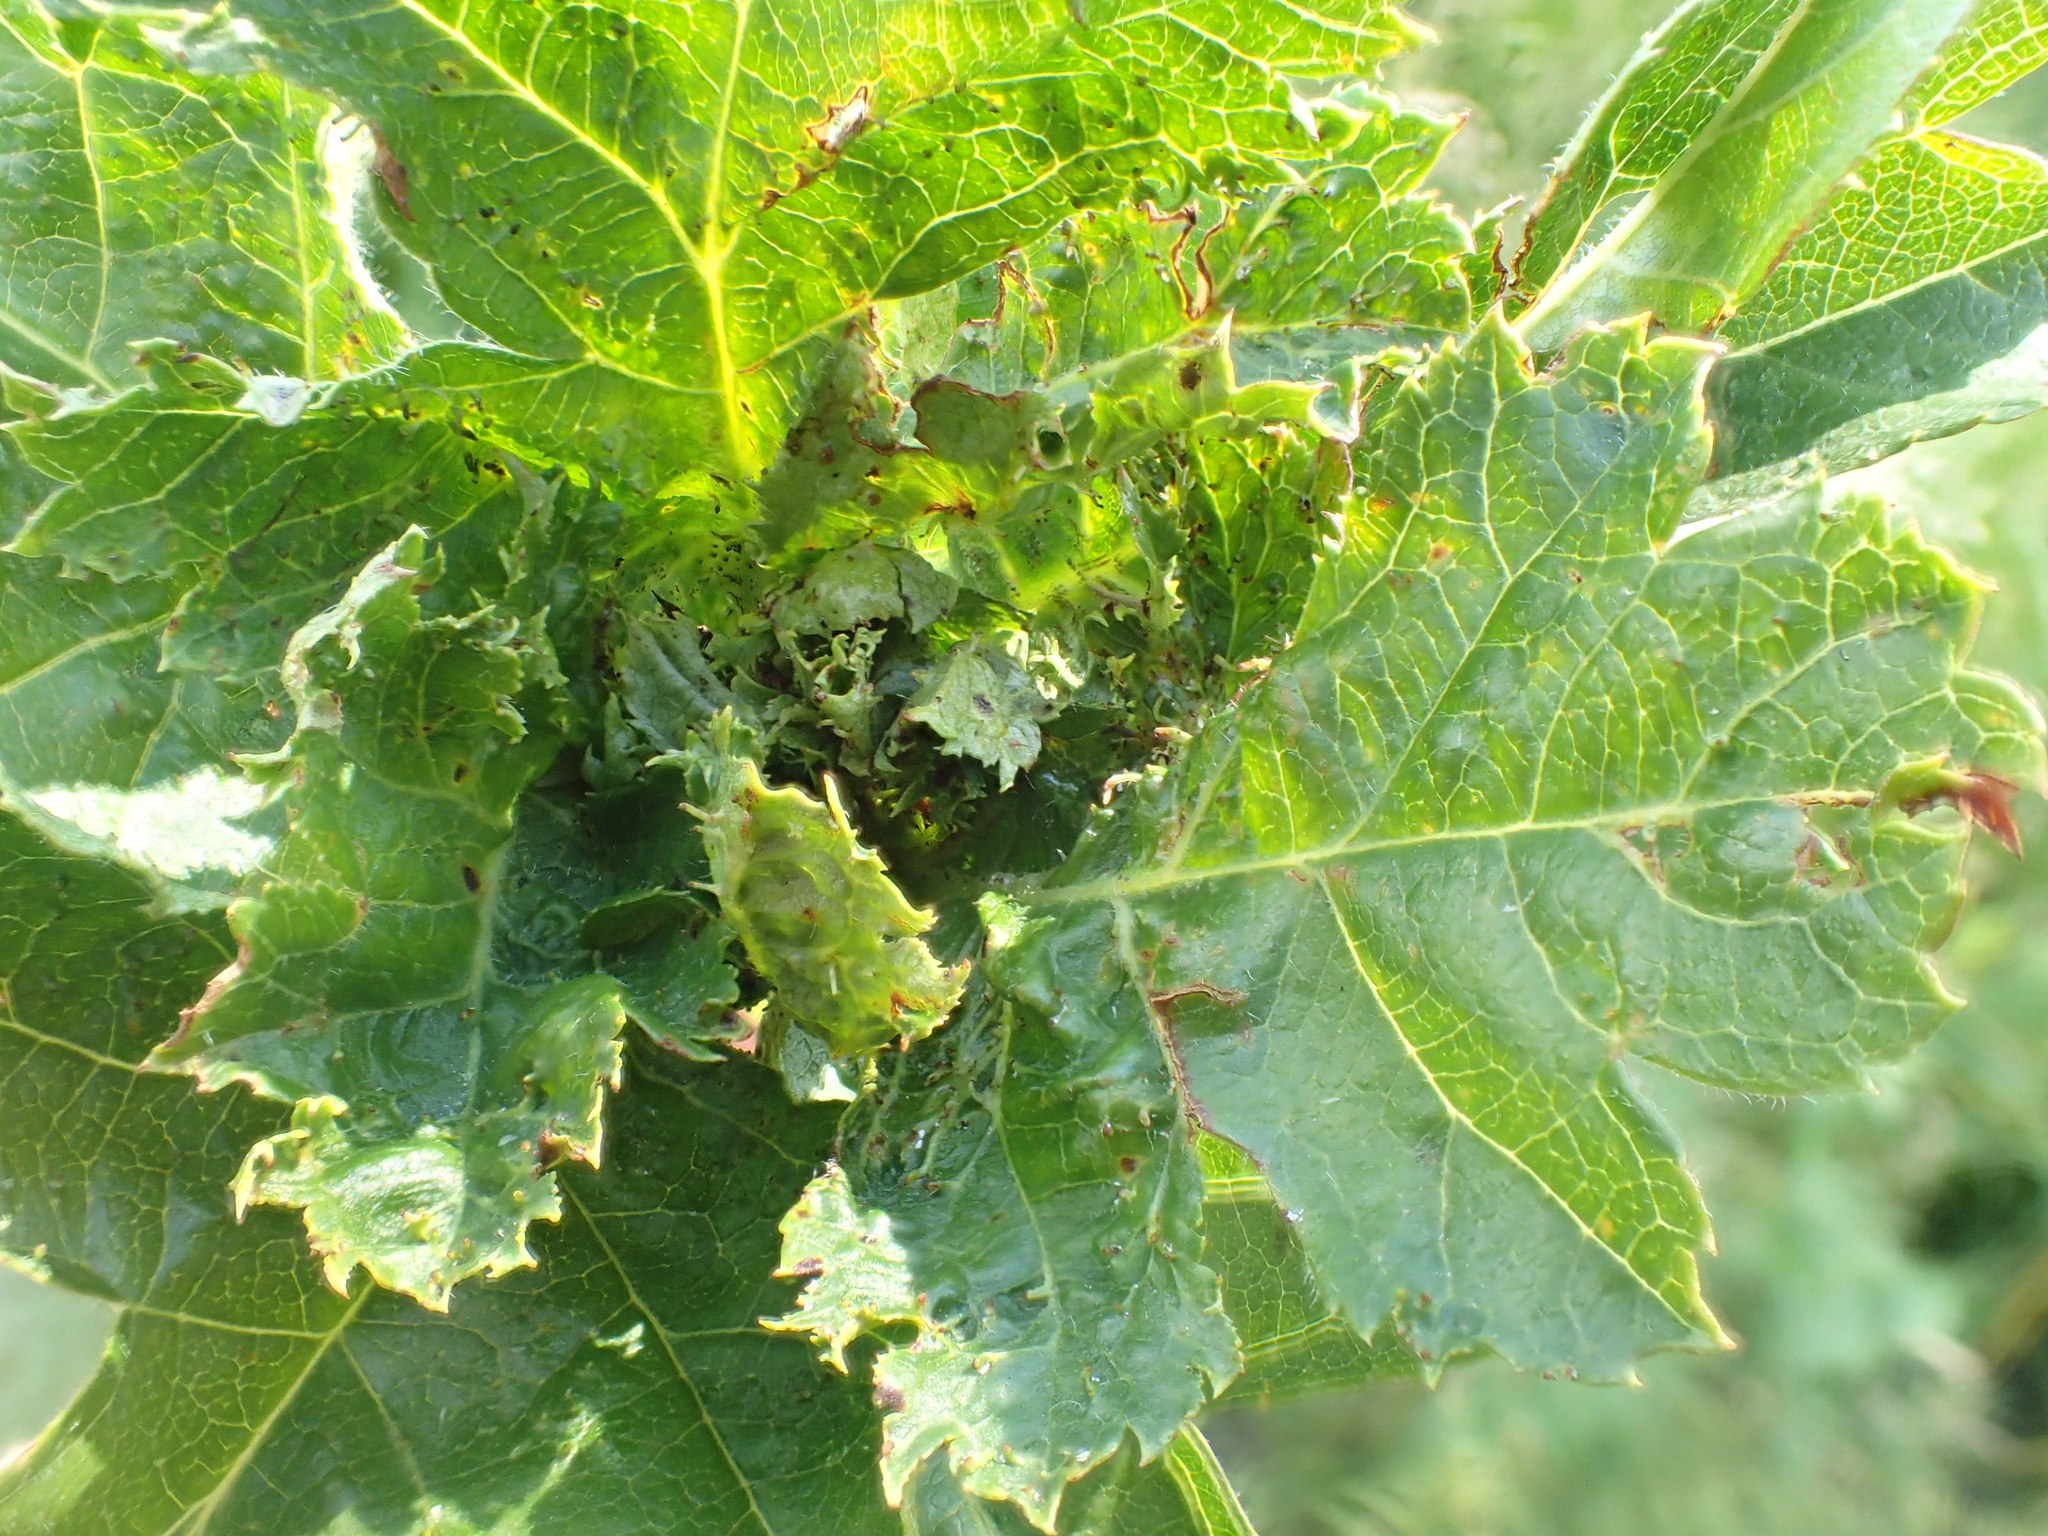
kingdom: Animalia
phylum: Arthropoda
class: Insecta
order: Diptera
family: Cecidomyiidae
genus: Dasineura
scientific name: Dasineura crataegi
